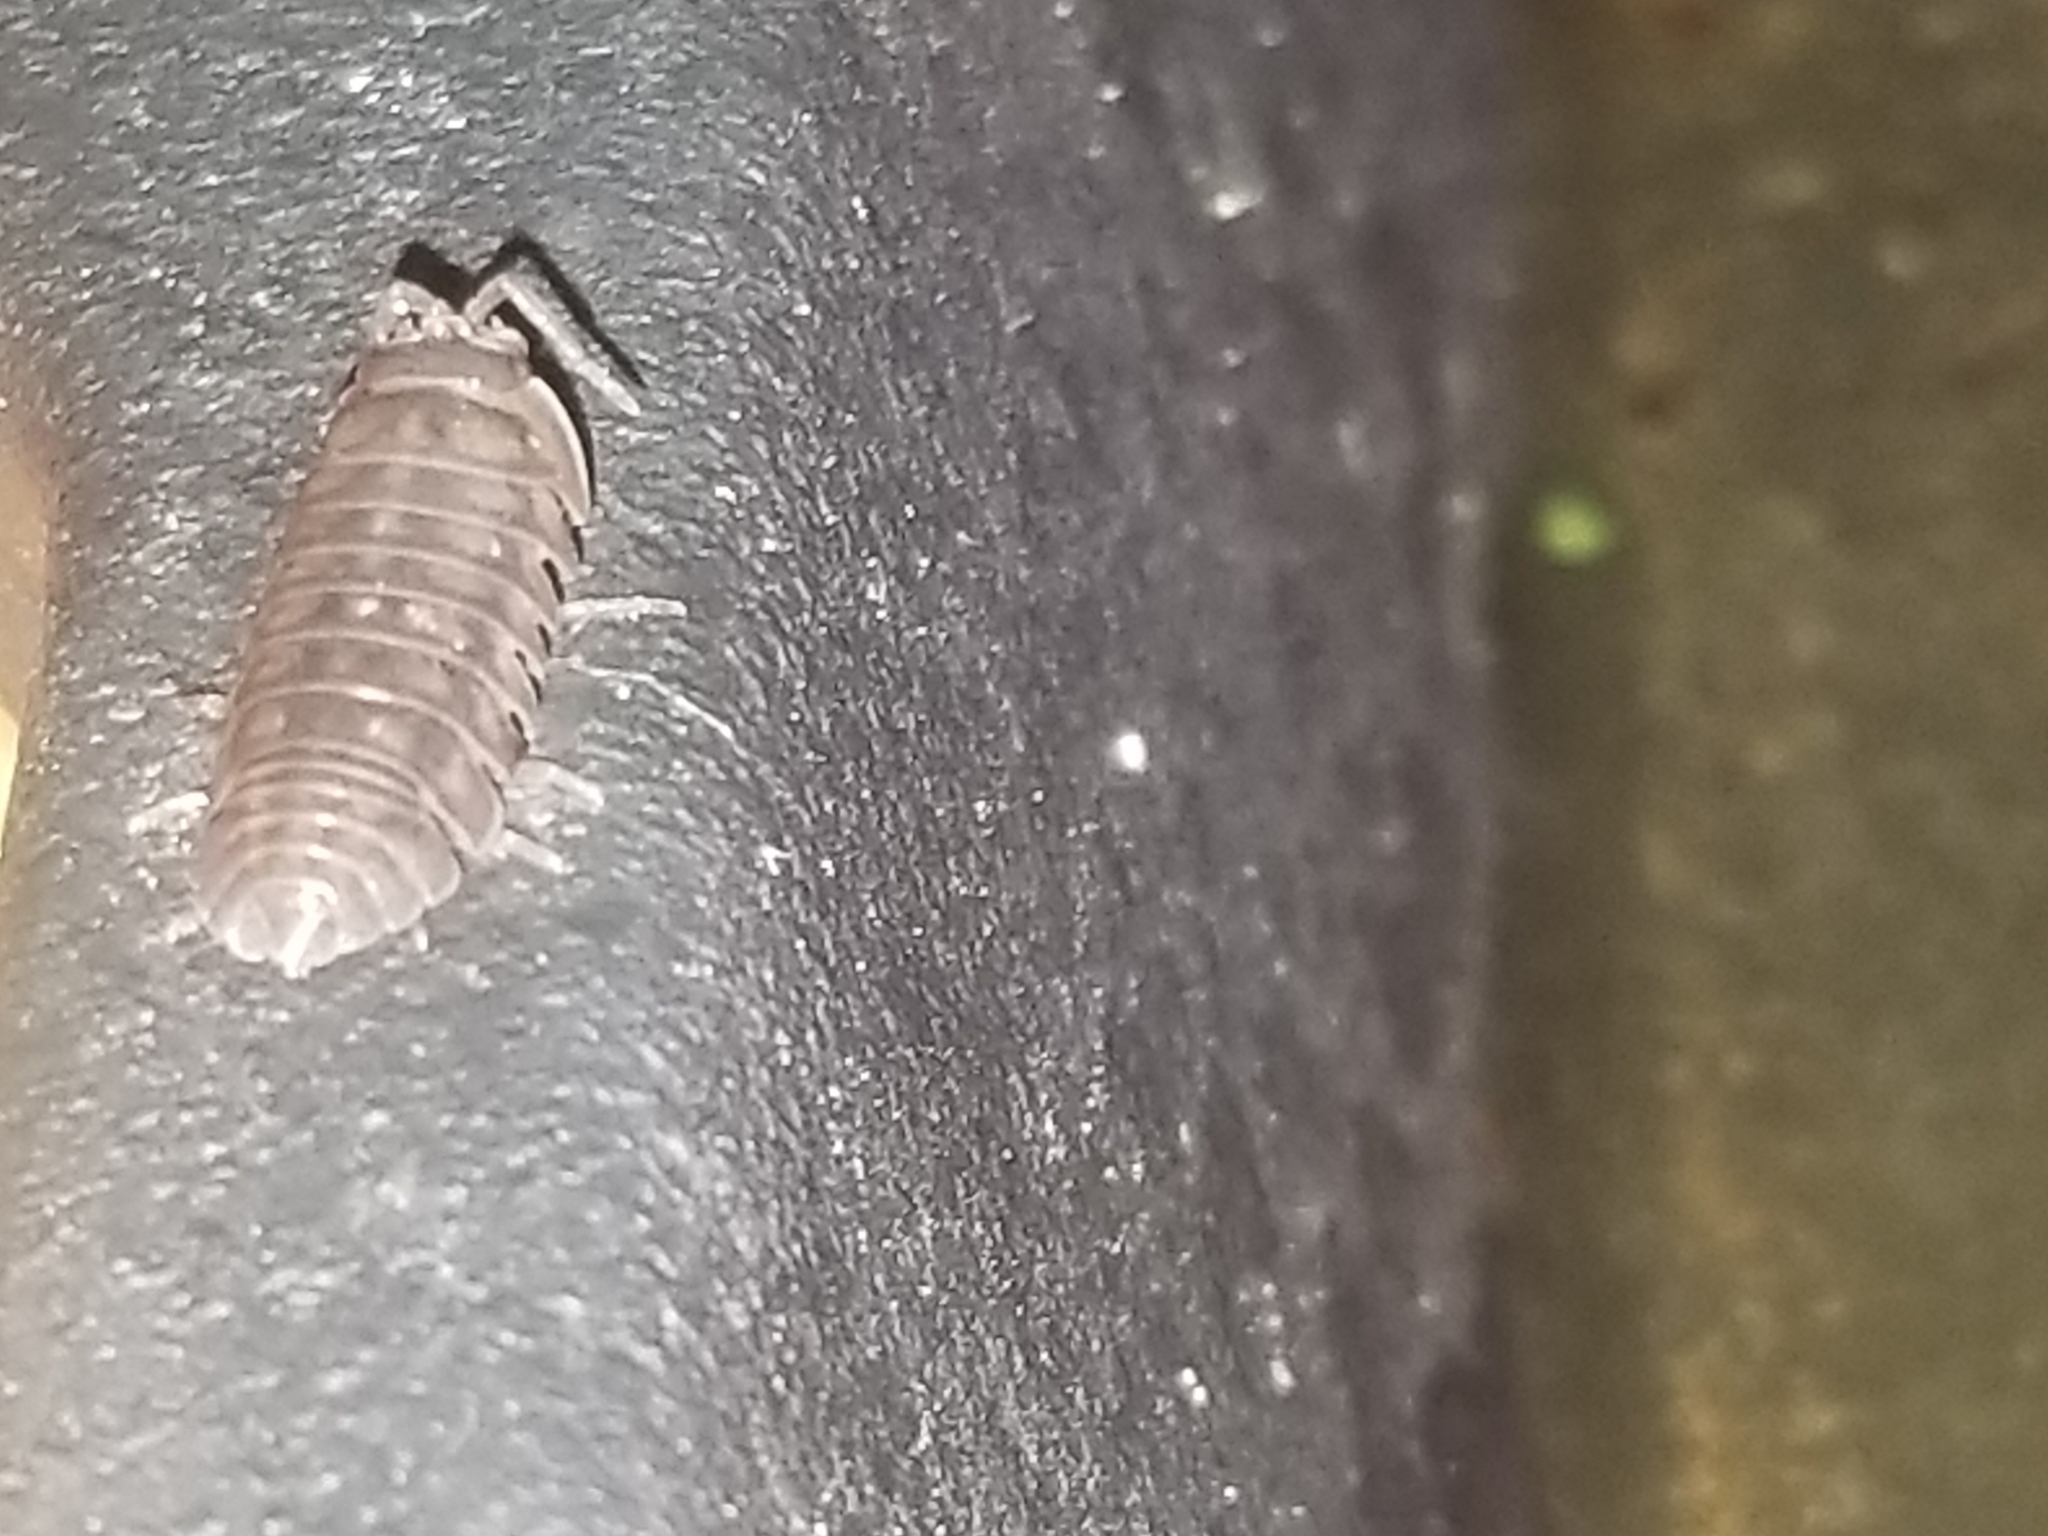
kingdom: Animalia
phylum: Arthropoda
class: Malacostraca
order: Isopoda
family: Armadillidiidae
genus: Armadillidium
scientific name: Armadillidium nasatum
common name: Isopod
